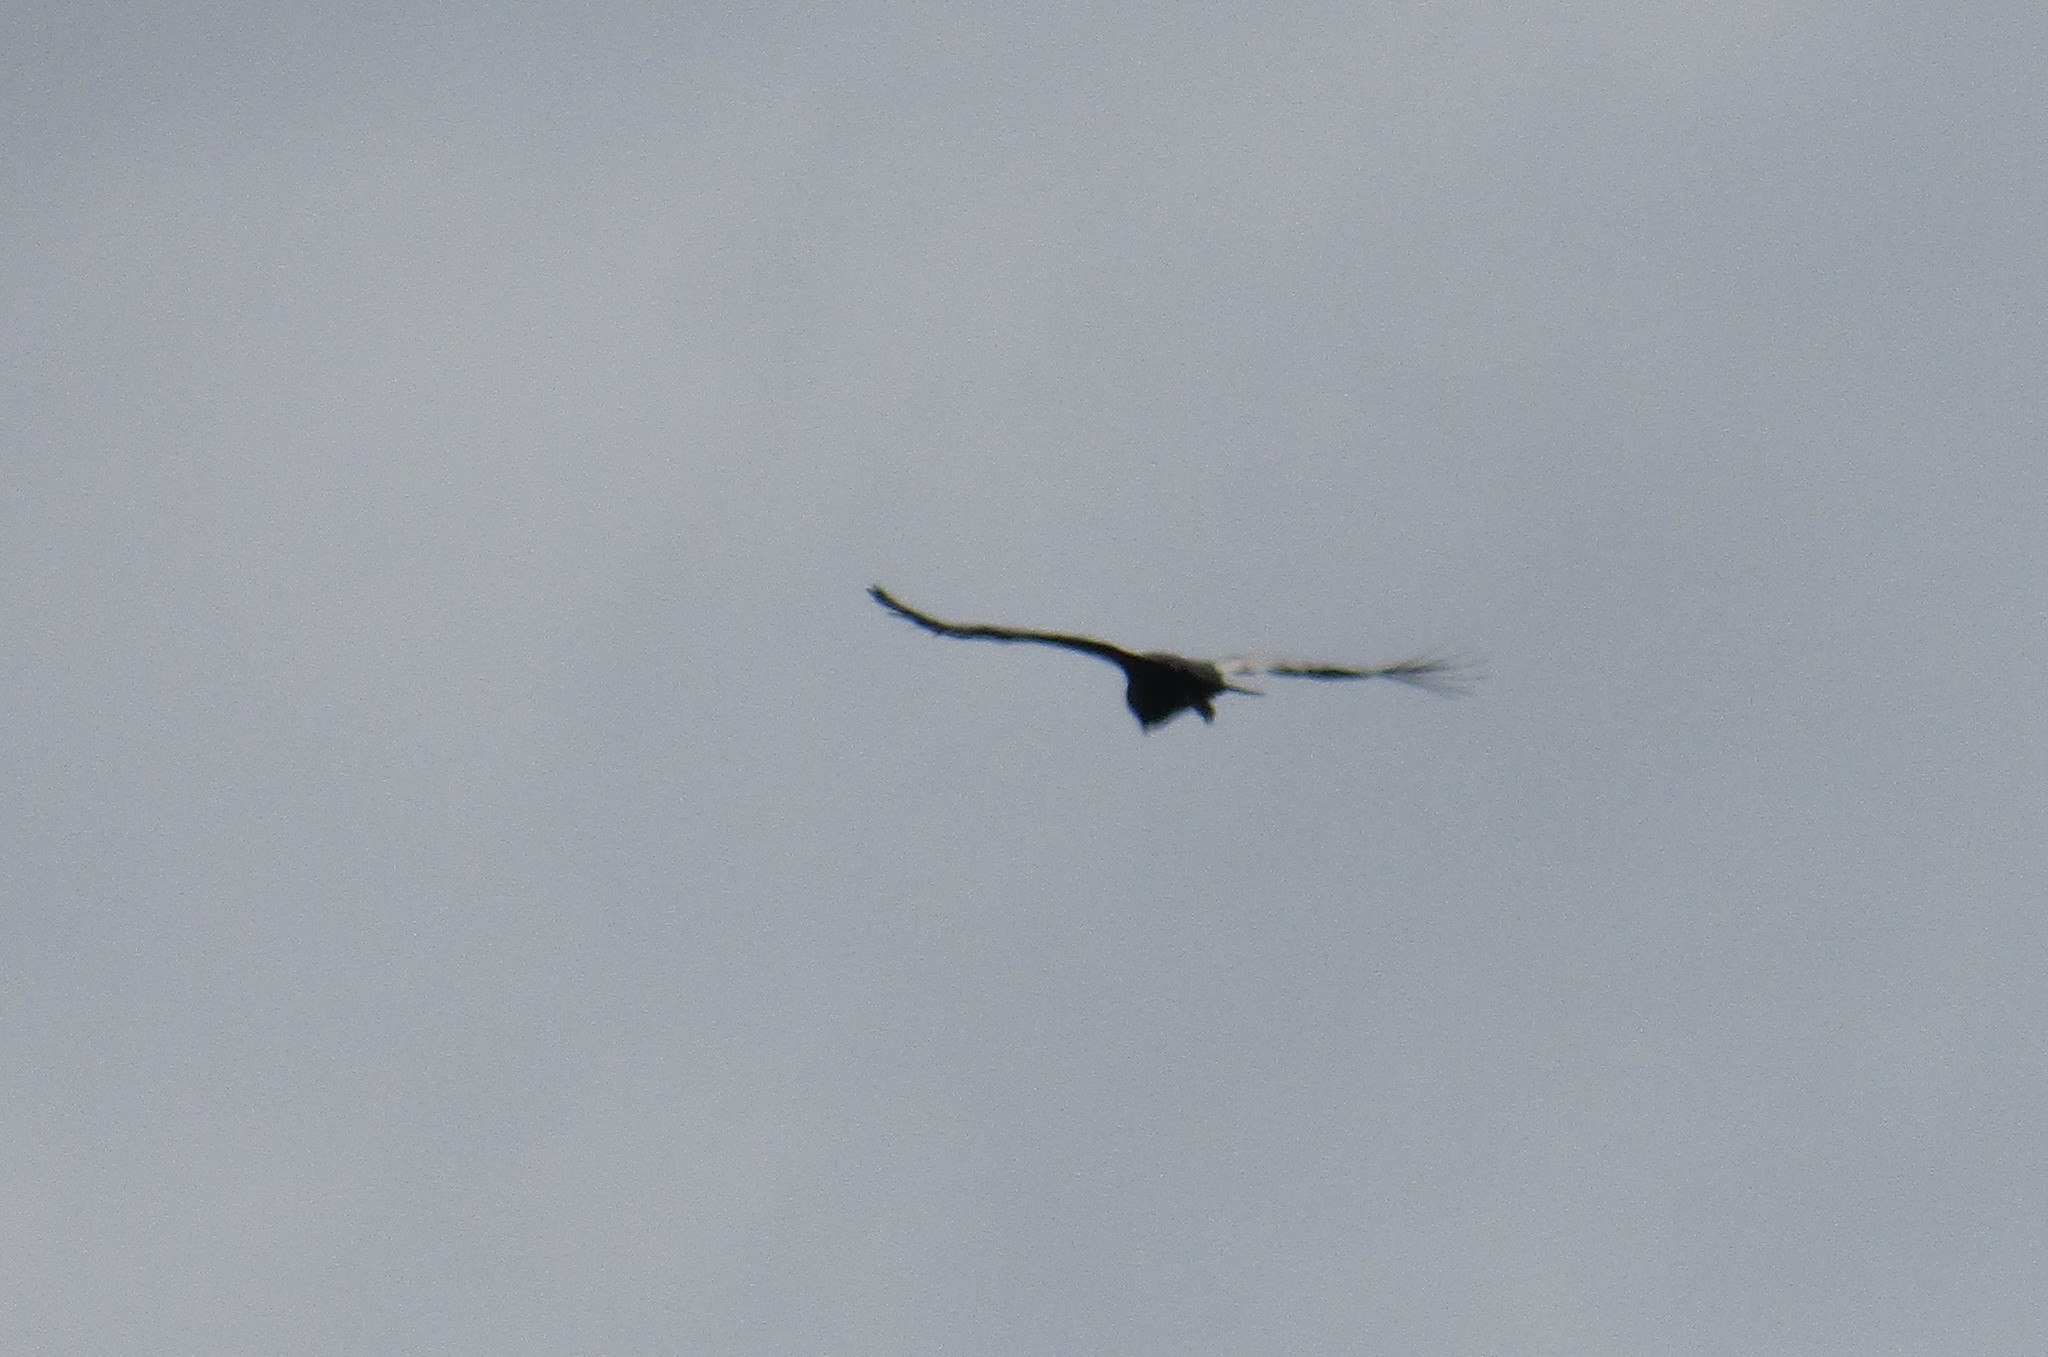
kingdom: Animalia
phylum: Chordata
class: Aves
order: Accipitriformes
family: Cathartidae
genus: Vultur
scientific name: Vultur gryphus
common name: Andean condor
